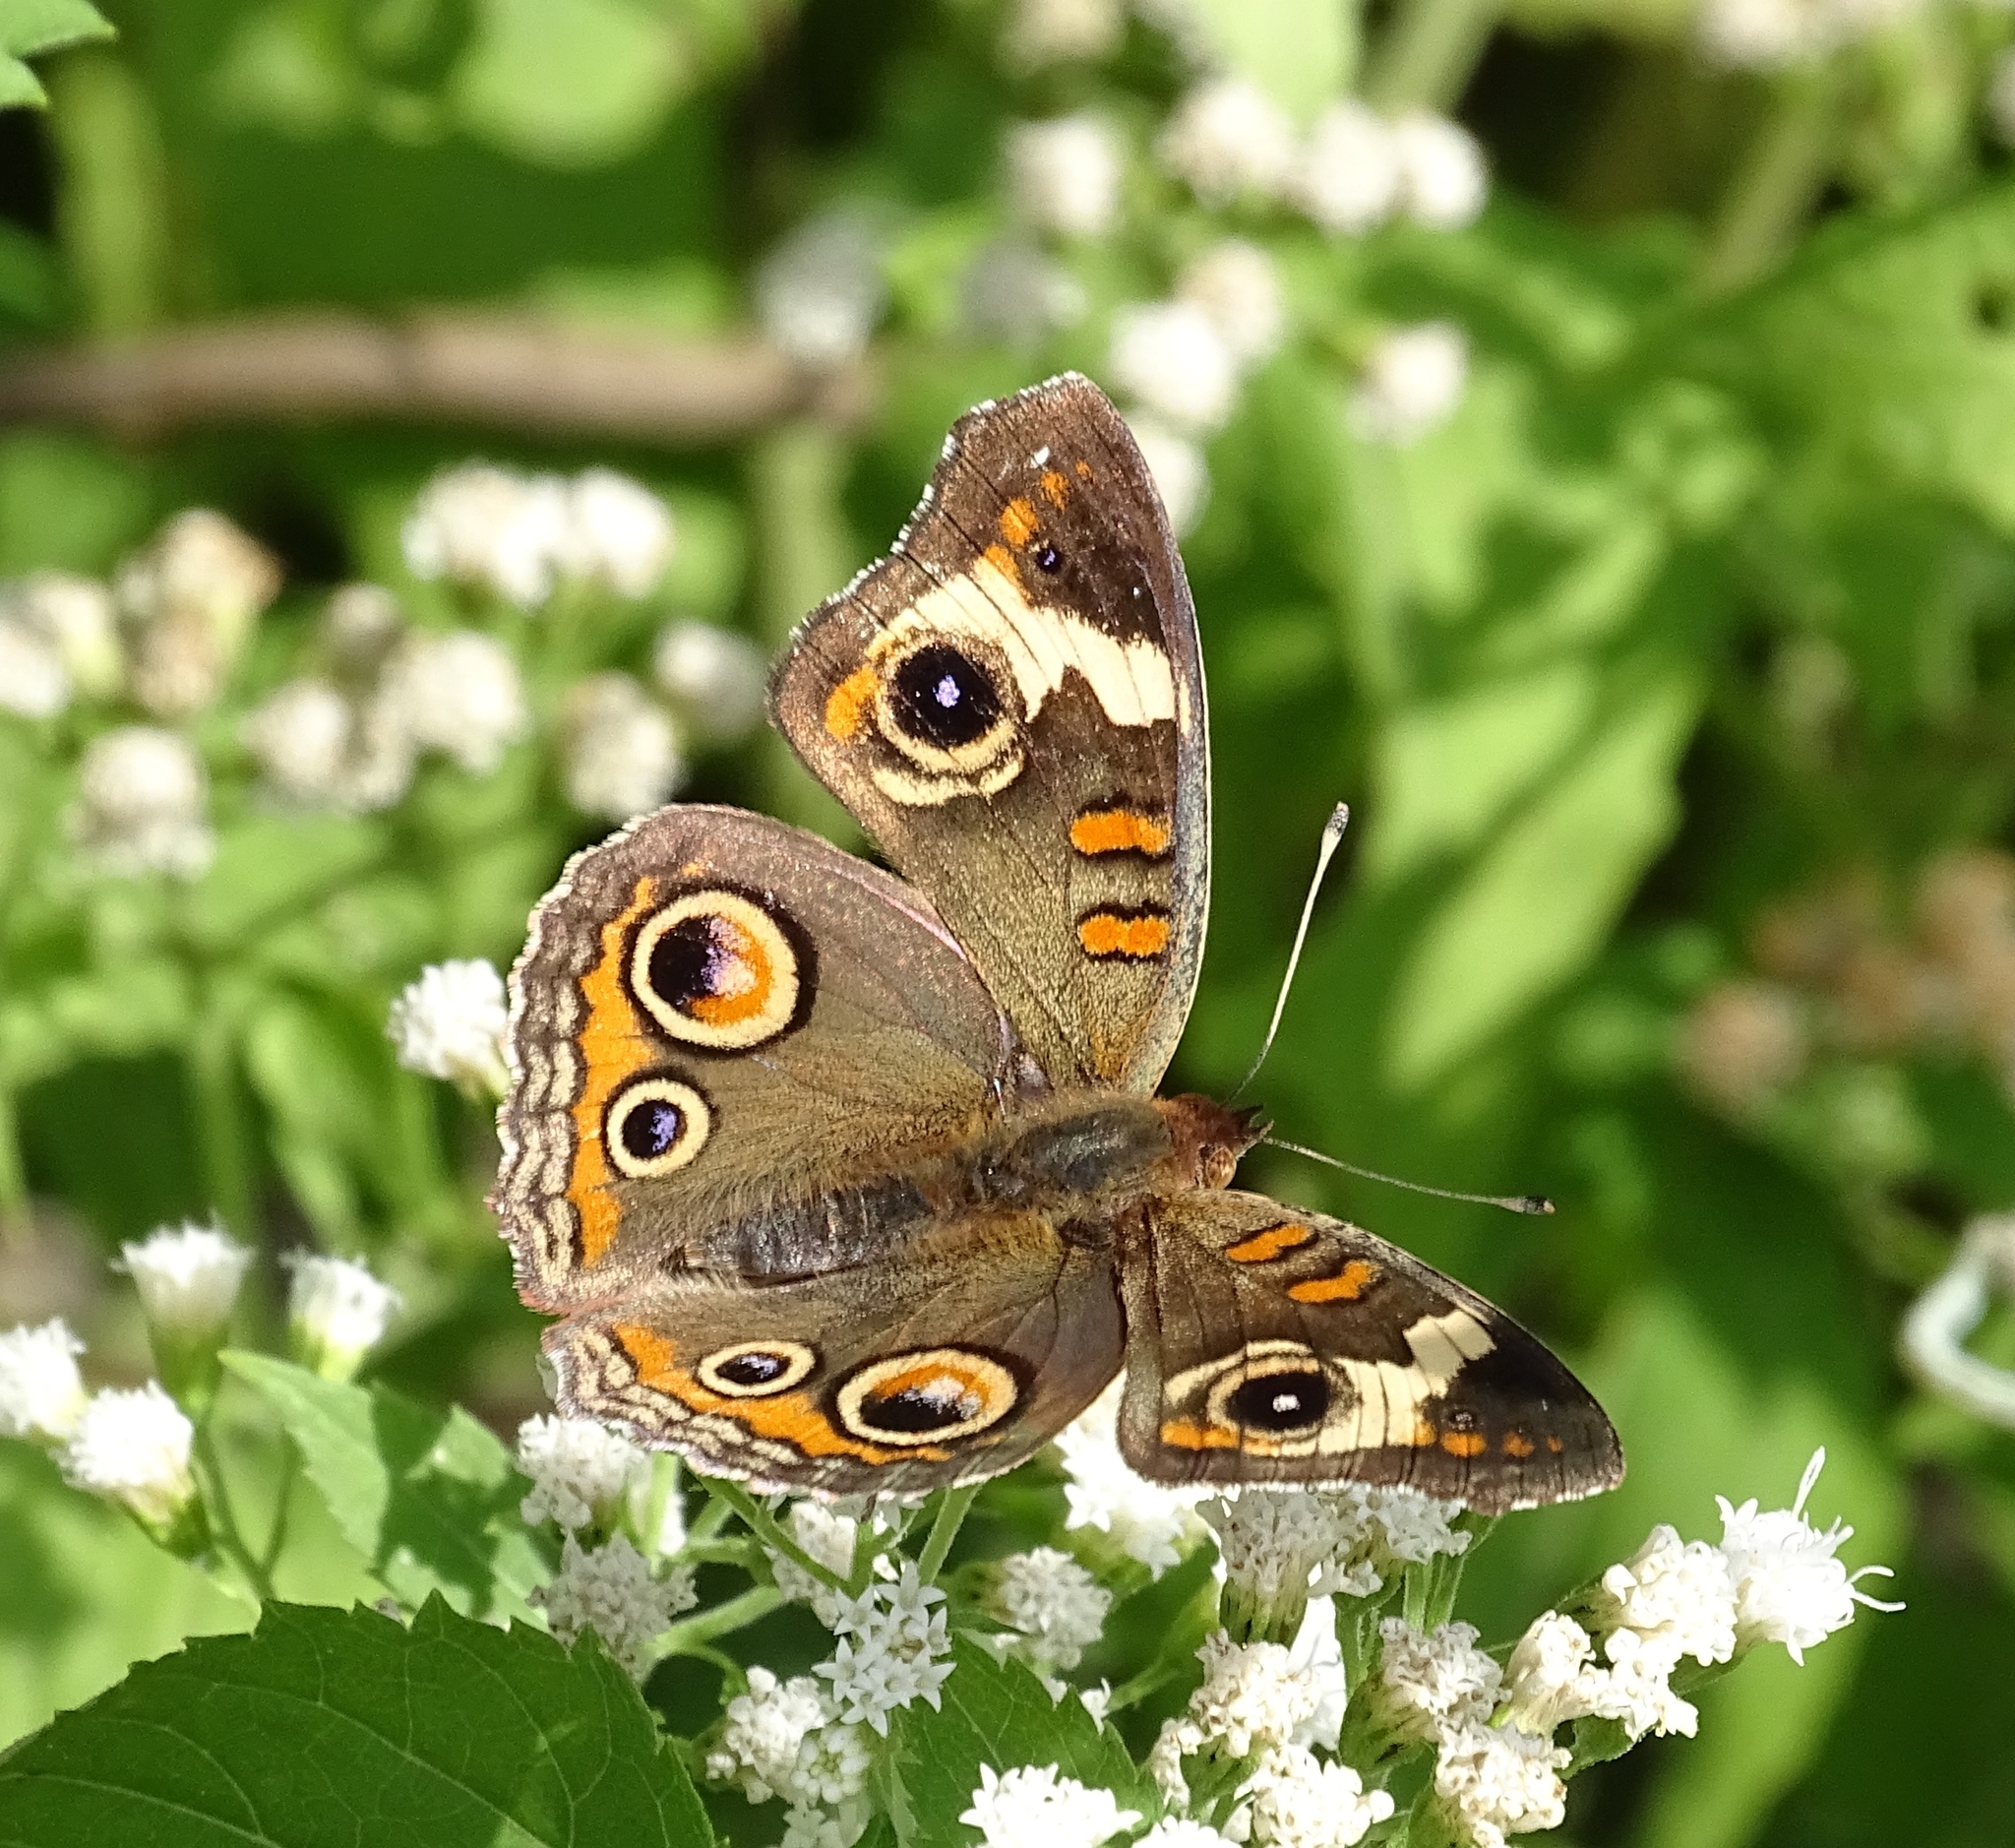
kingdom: Animalia
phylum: Arthropoda
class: Insecta
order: Lepidoptera
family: Nymphalidae
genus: Junonia
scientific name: Junonia coenia
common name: Common buckeye
